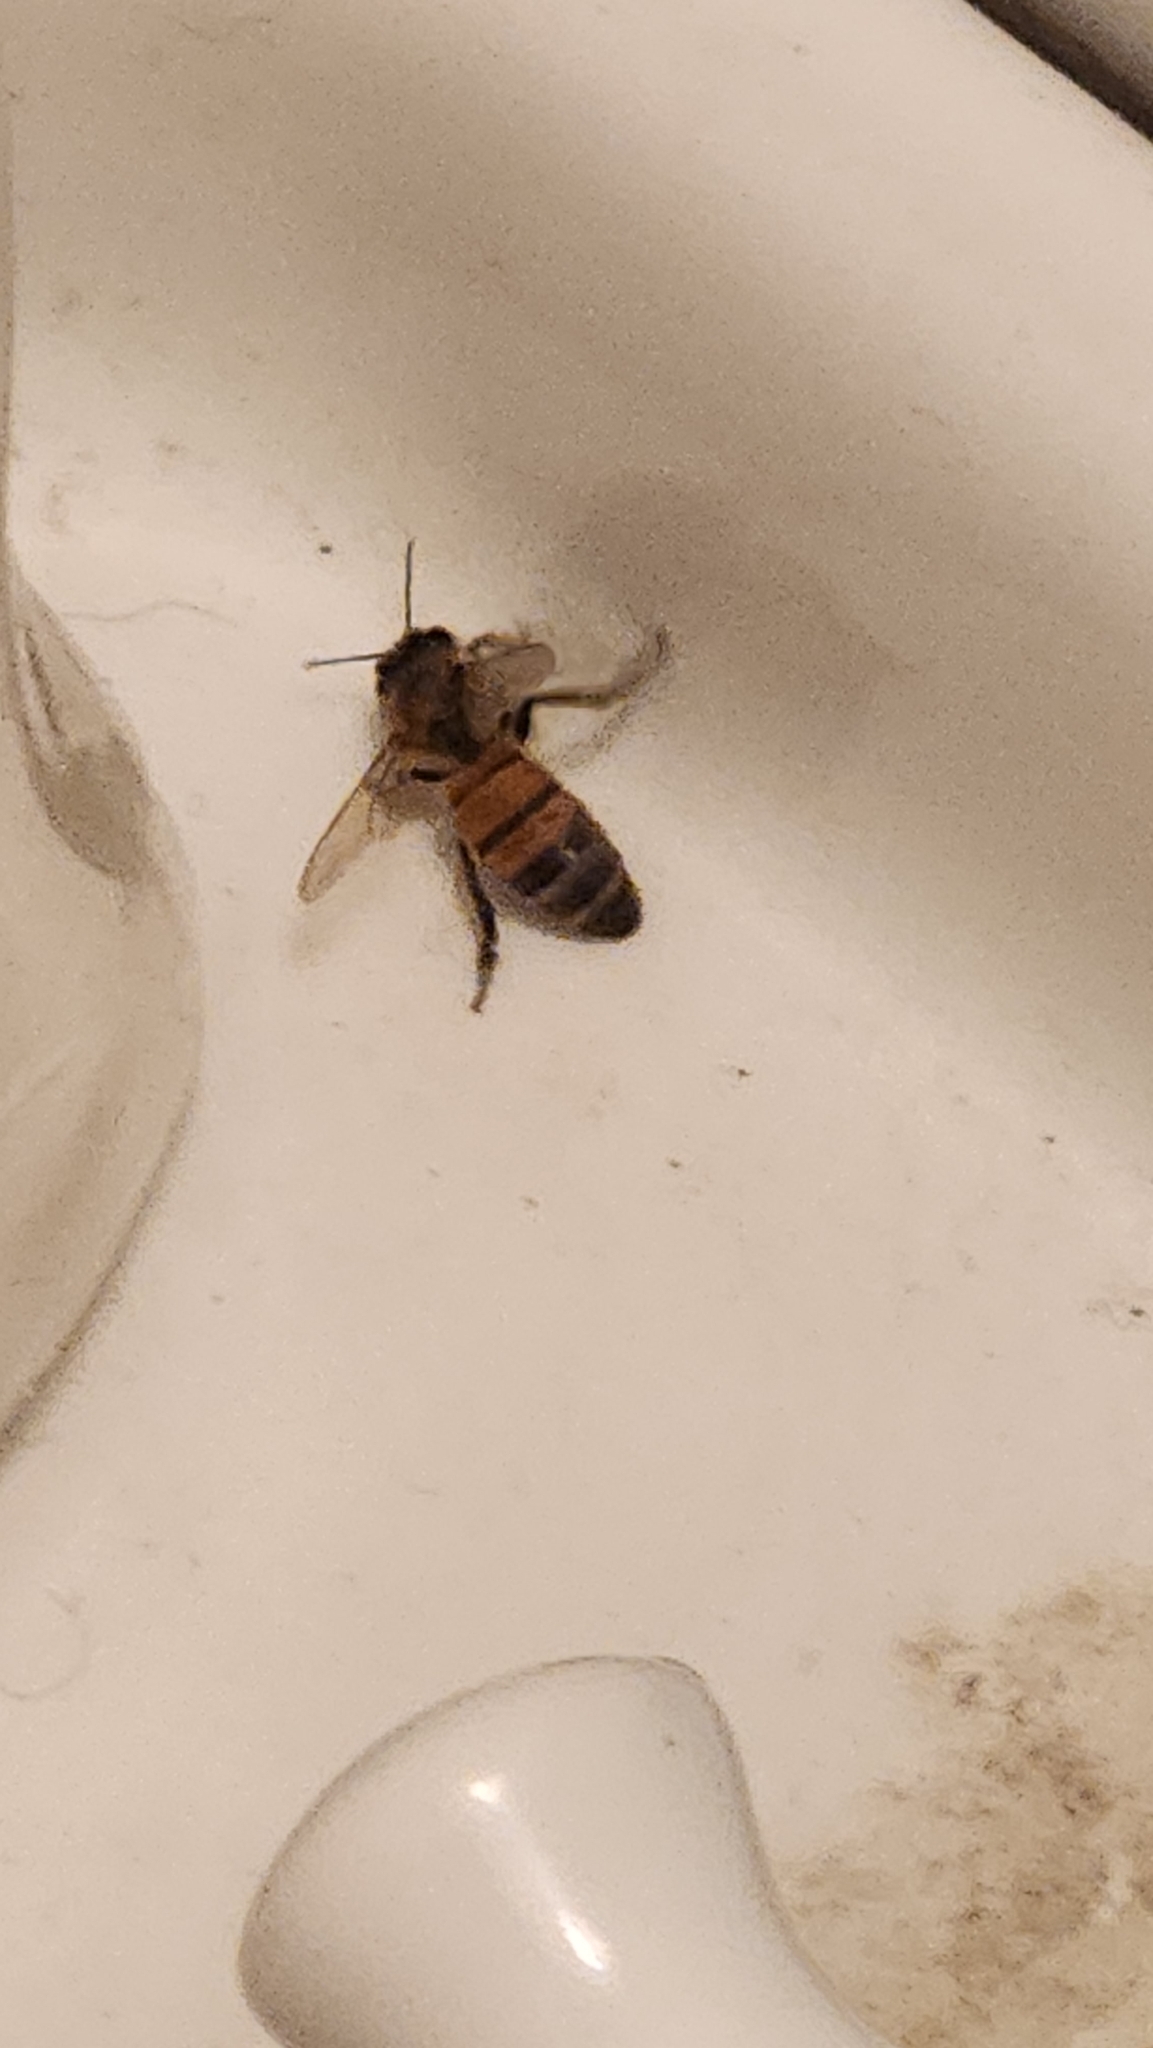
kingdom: Animalia
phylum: Arthropoda
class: Insecta
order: Hymenoptera
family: Apidae
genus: Apis
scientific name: Apis mellifera
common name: Honey bee
